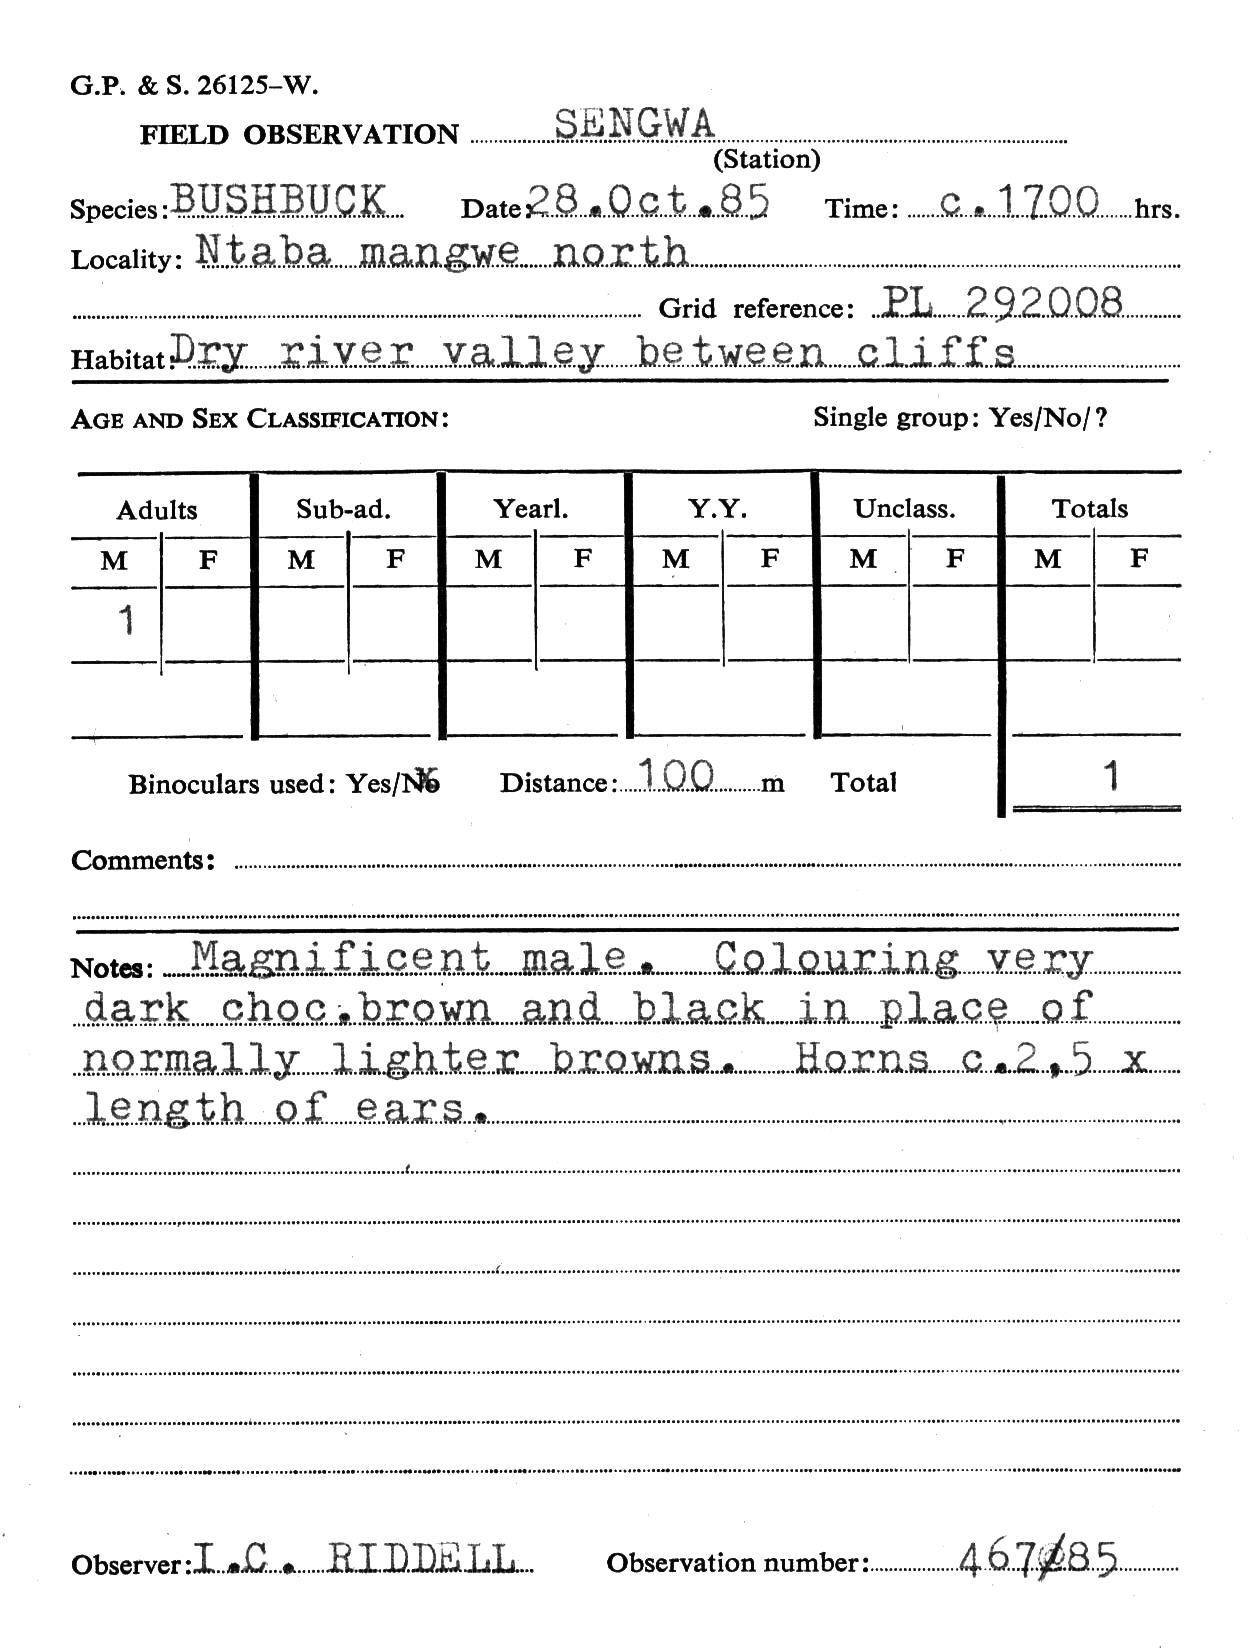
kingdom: Animalia
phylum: Chordata
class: Mammalia
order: Artiodactyla
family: Bovidae
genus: Tragelaphus
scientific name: Tragelaphus scriptus
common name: Bushbuck
